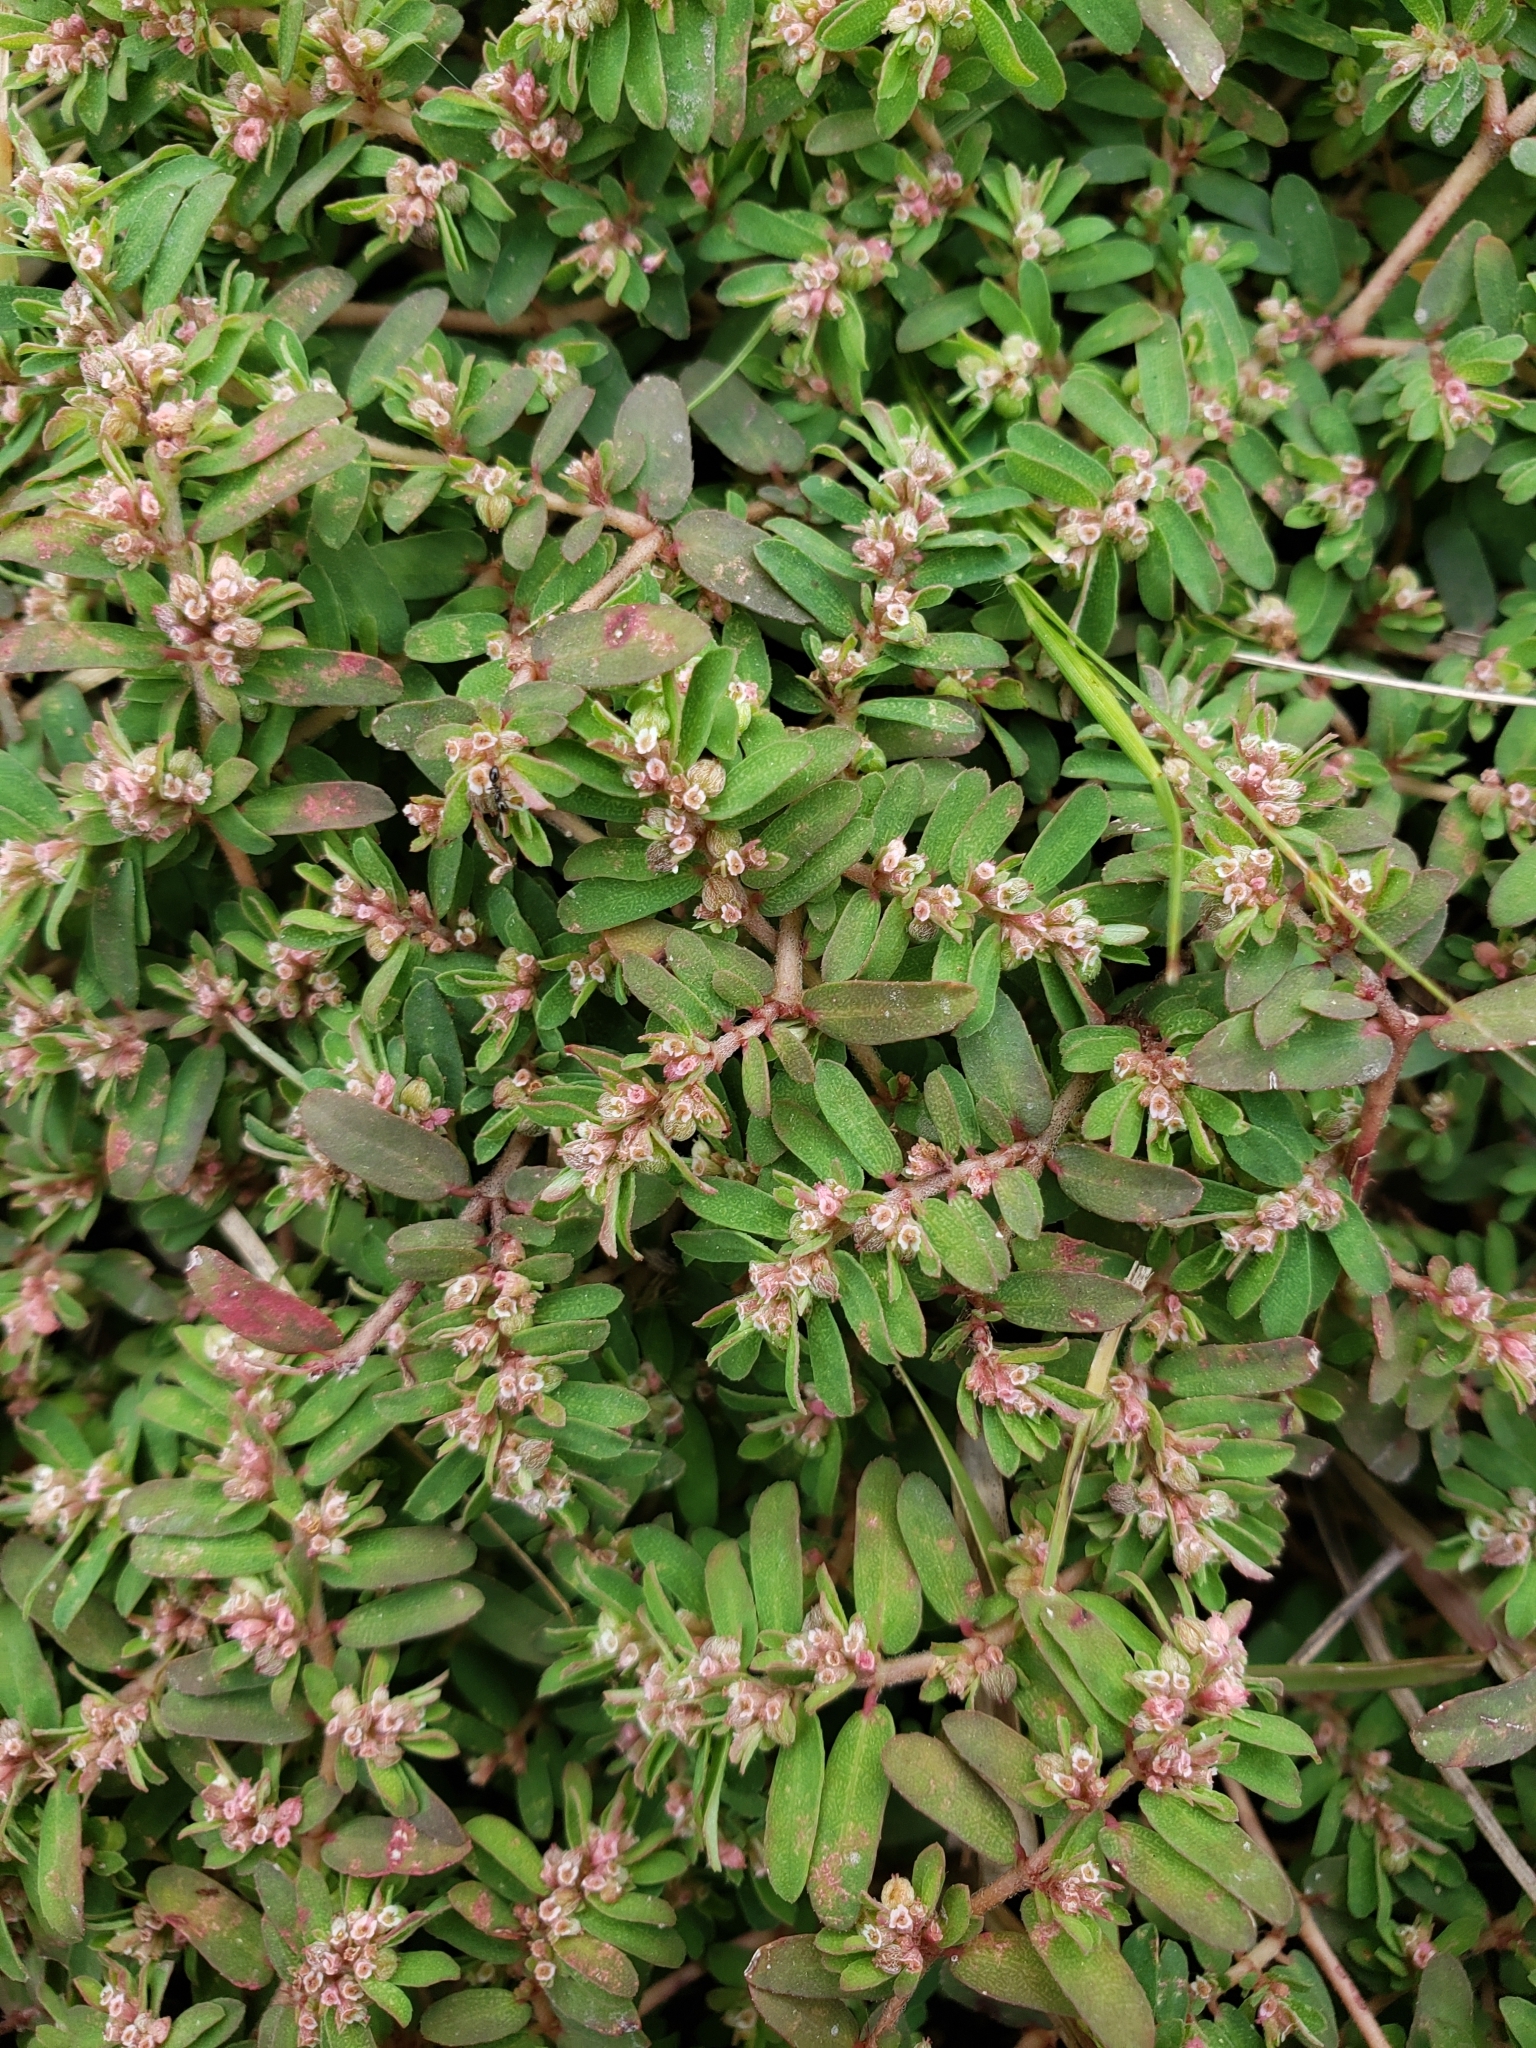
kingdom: Plantae
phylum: Tracheophyta
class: Magnoliopsida
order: Malpighiales
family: Euphorbiaceae
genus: Euphorbia
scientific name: Euphorbia maculata
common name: Spotted spurge
